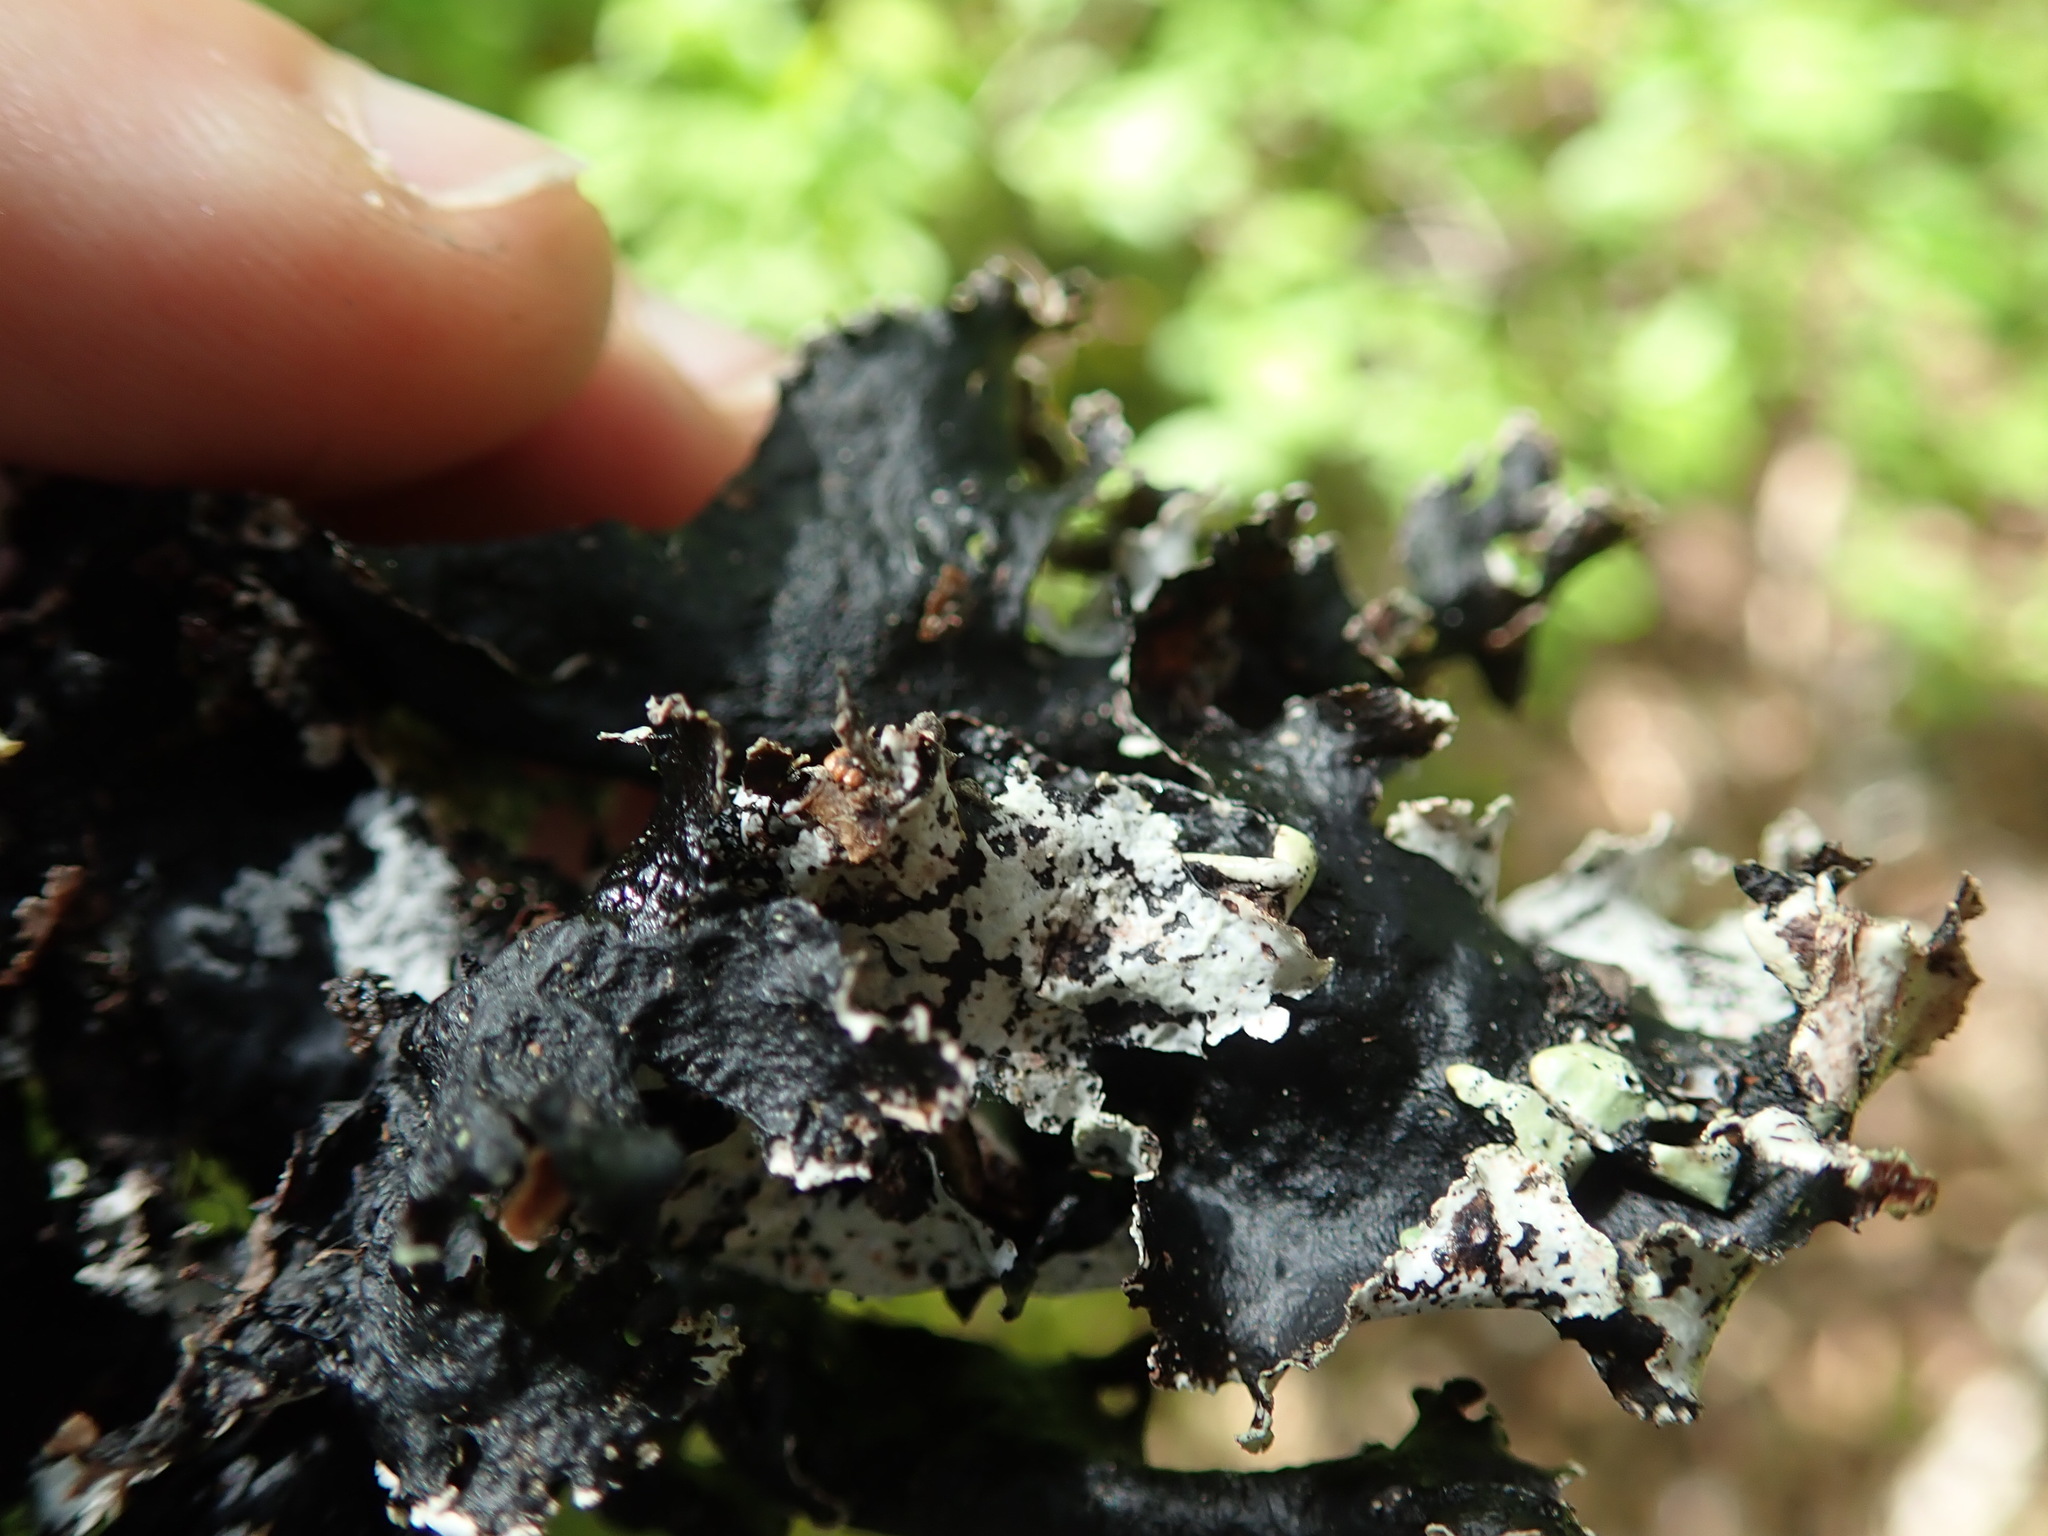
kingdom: Fungi
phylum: Ascomycota
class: Lecanoromycetes
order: Lecanorales
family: Parmeliaceae
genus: Platismatia
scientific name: Platismatia glauca
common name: Varied rag lichen
